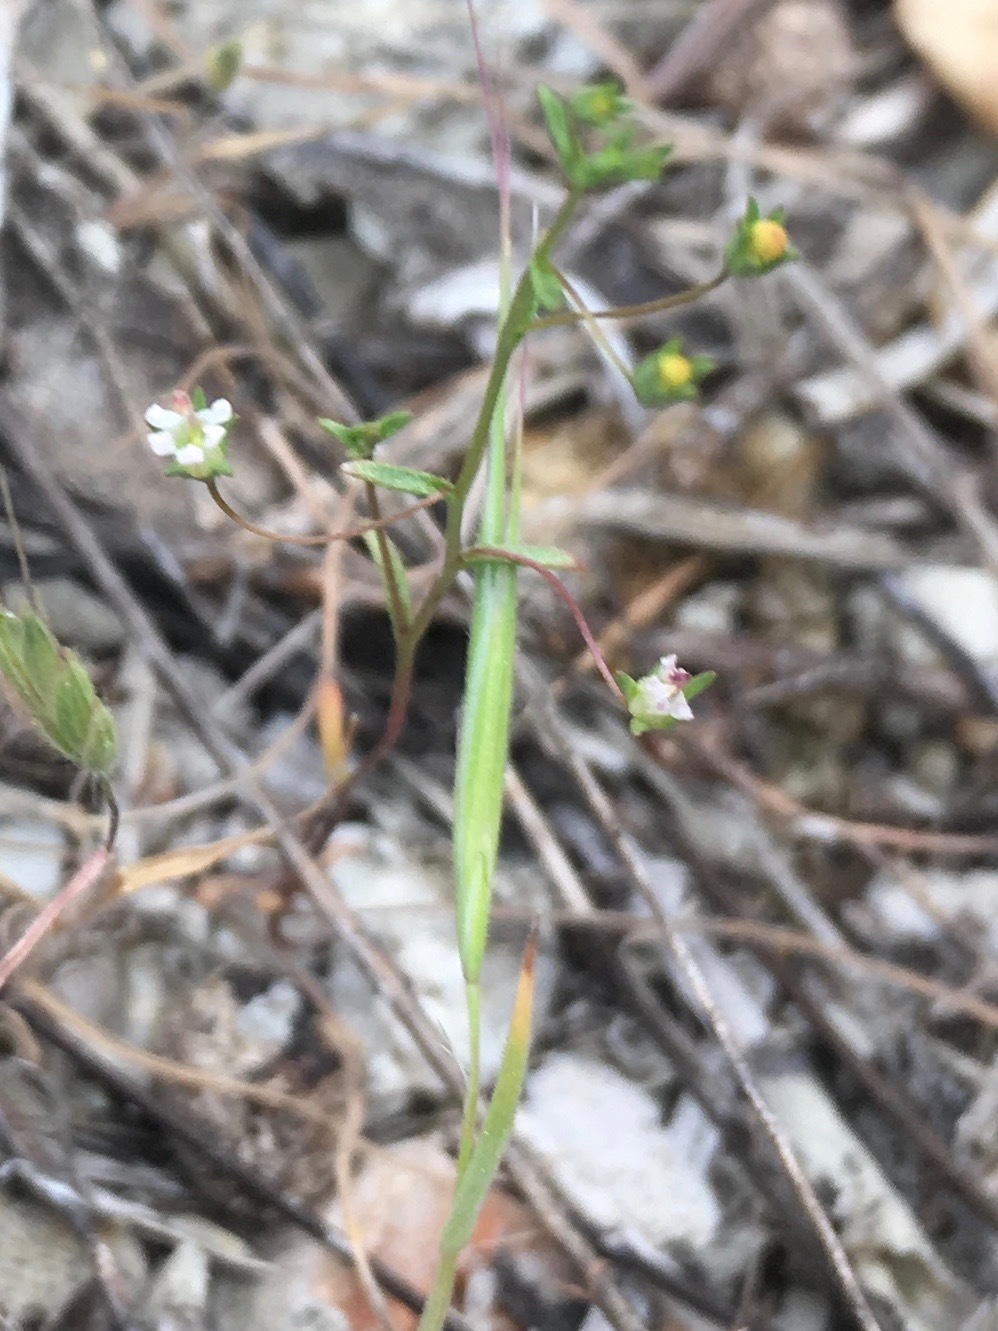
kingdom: Plantae
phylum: Tracheophyta
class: Magnoliopsida
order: Asterales
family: Campanulaceae
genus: Nemacladus
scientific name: Nemacladus secundiflorus
